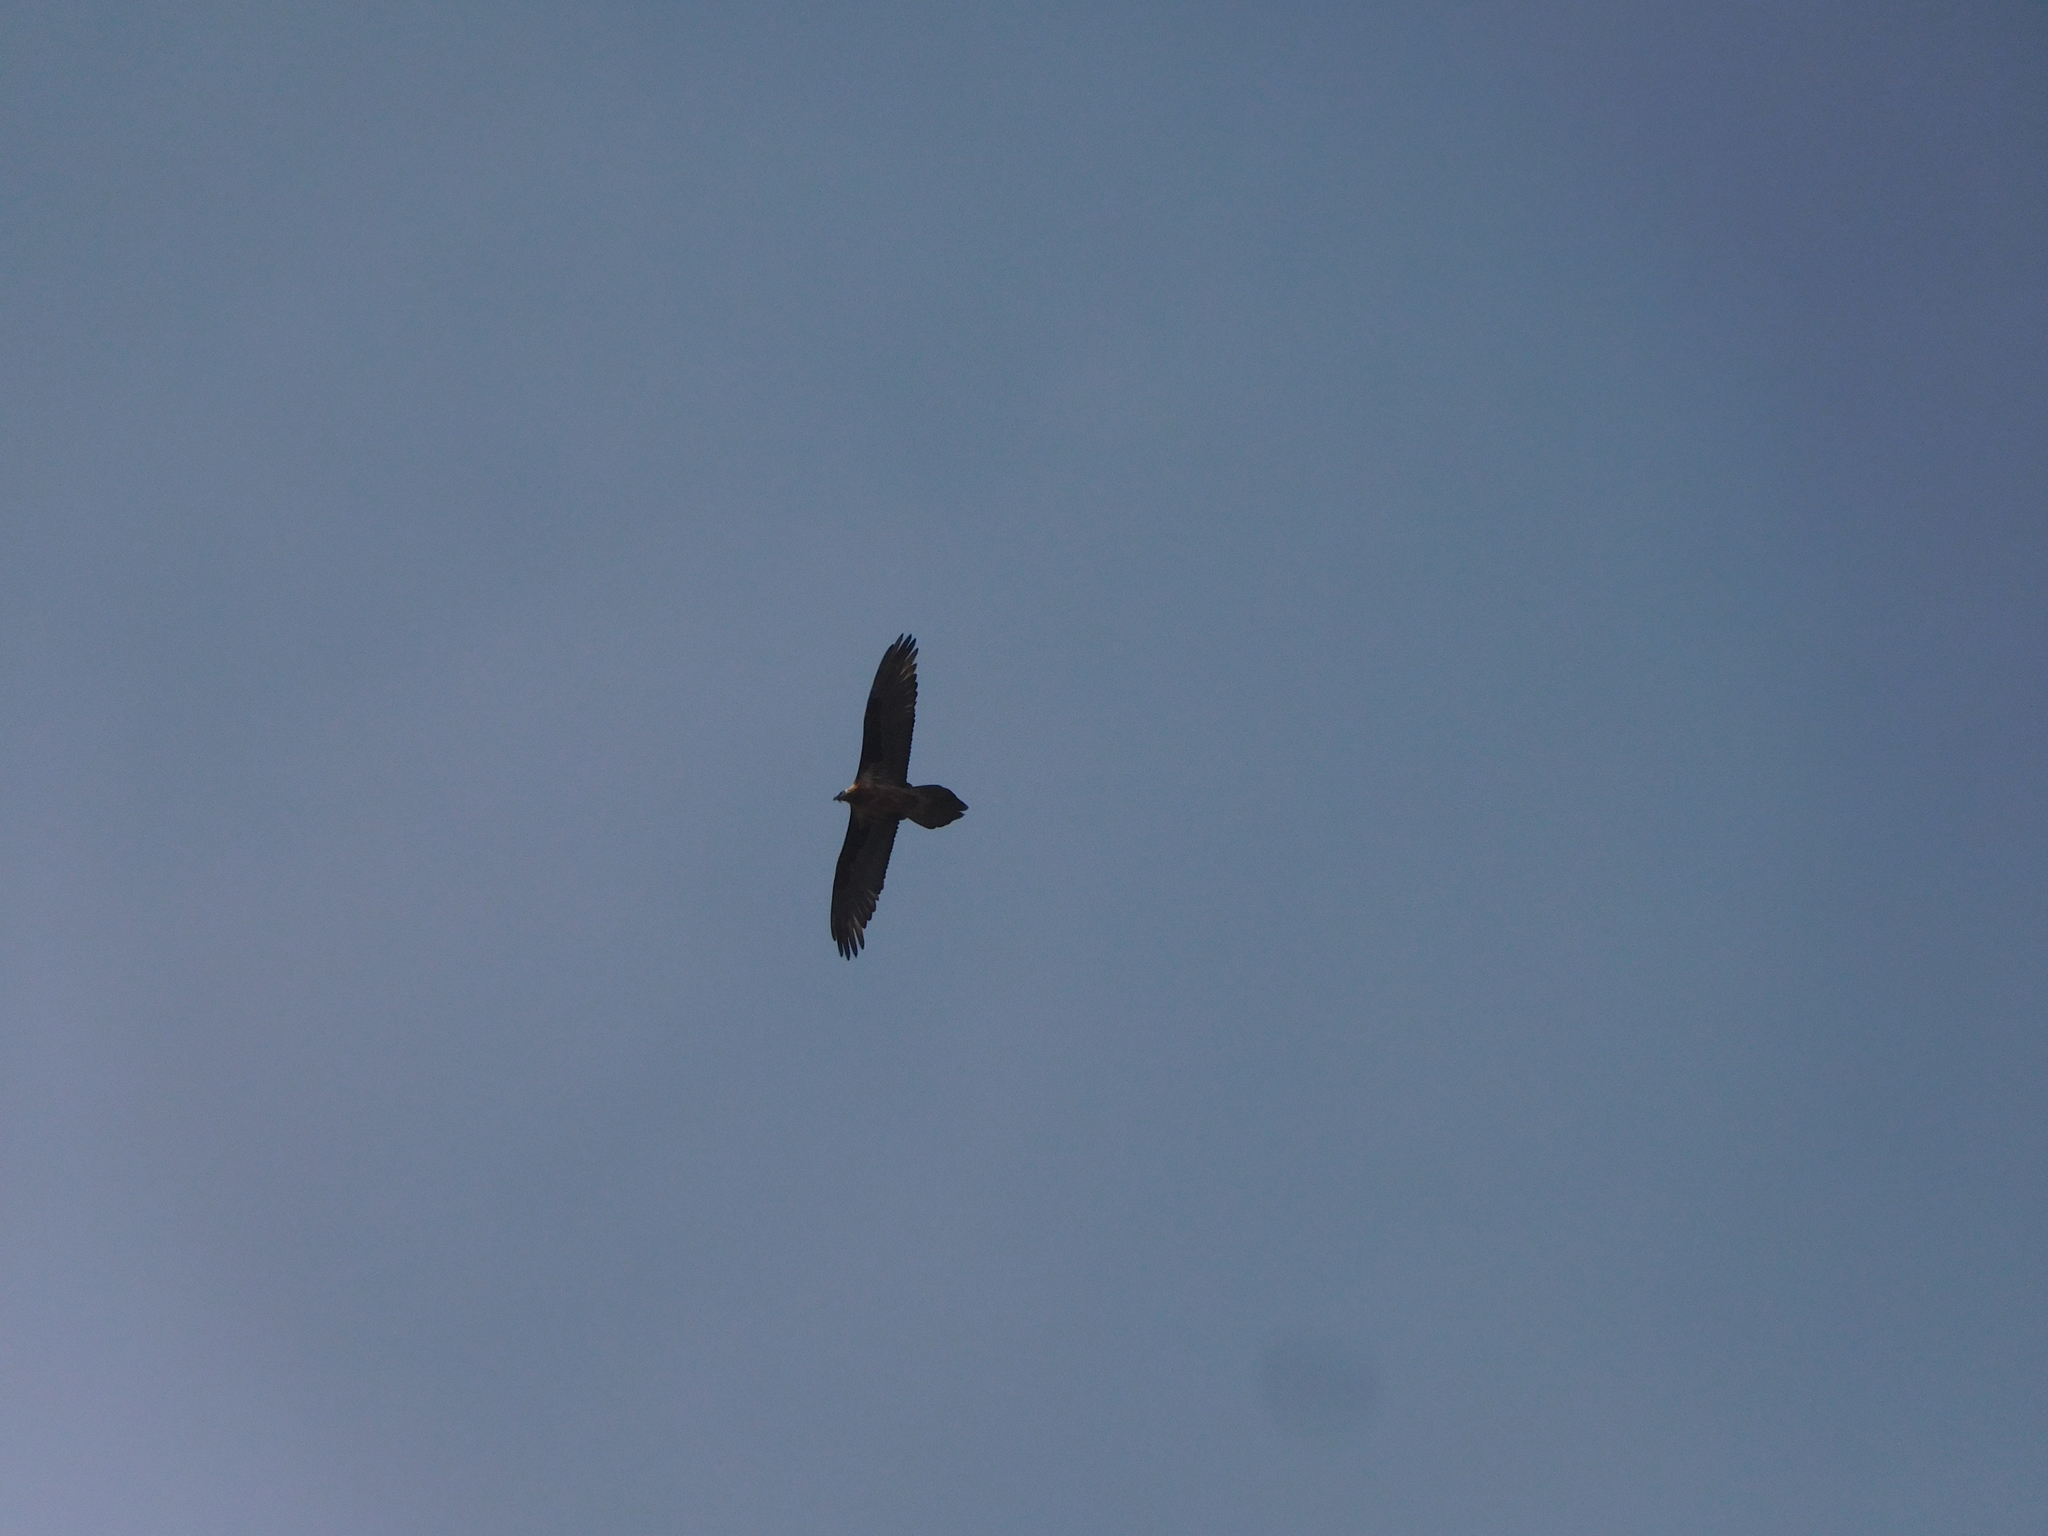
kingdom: Animalia
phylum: Chordata
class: Aves
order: Accipitriformes
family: Accipitridae
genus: Gypaetus
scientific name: Gypaetus barbatus
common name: Bearded vulture
